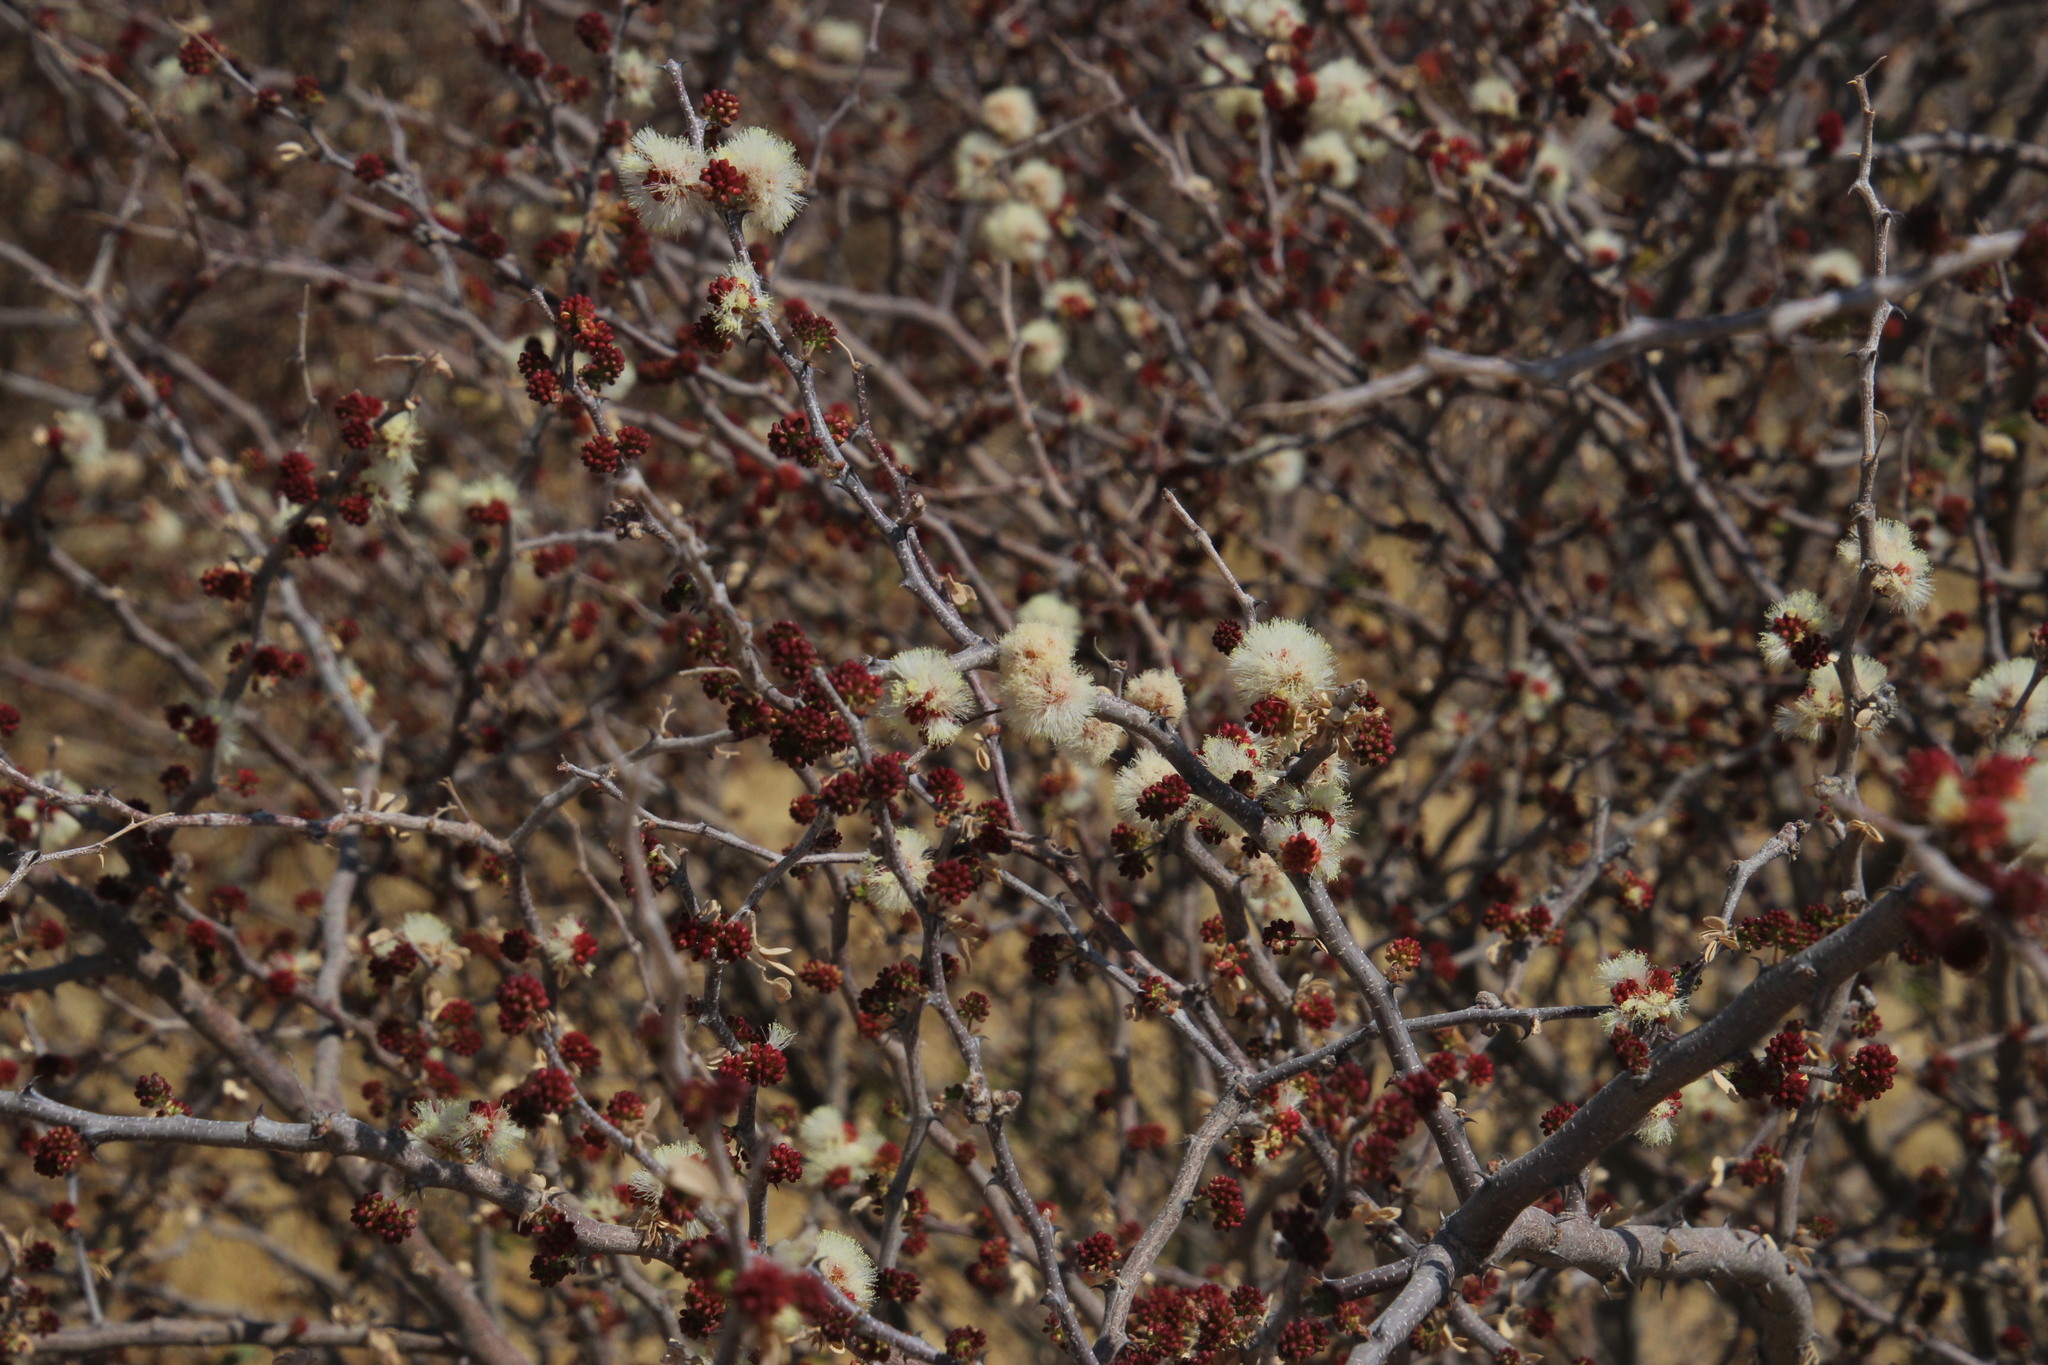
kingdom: Plantae
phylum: Tracheophyta
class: Magnoliopsida
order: Fabales
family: Fabaceae
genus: Senegalia
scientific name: Senegalia mellifera
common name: Hookthorn
